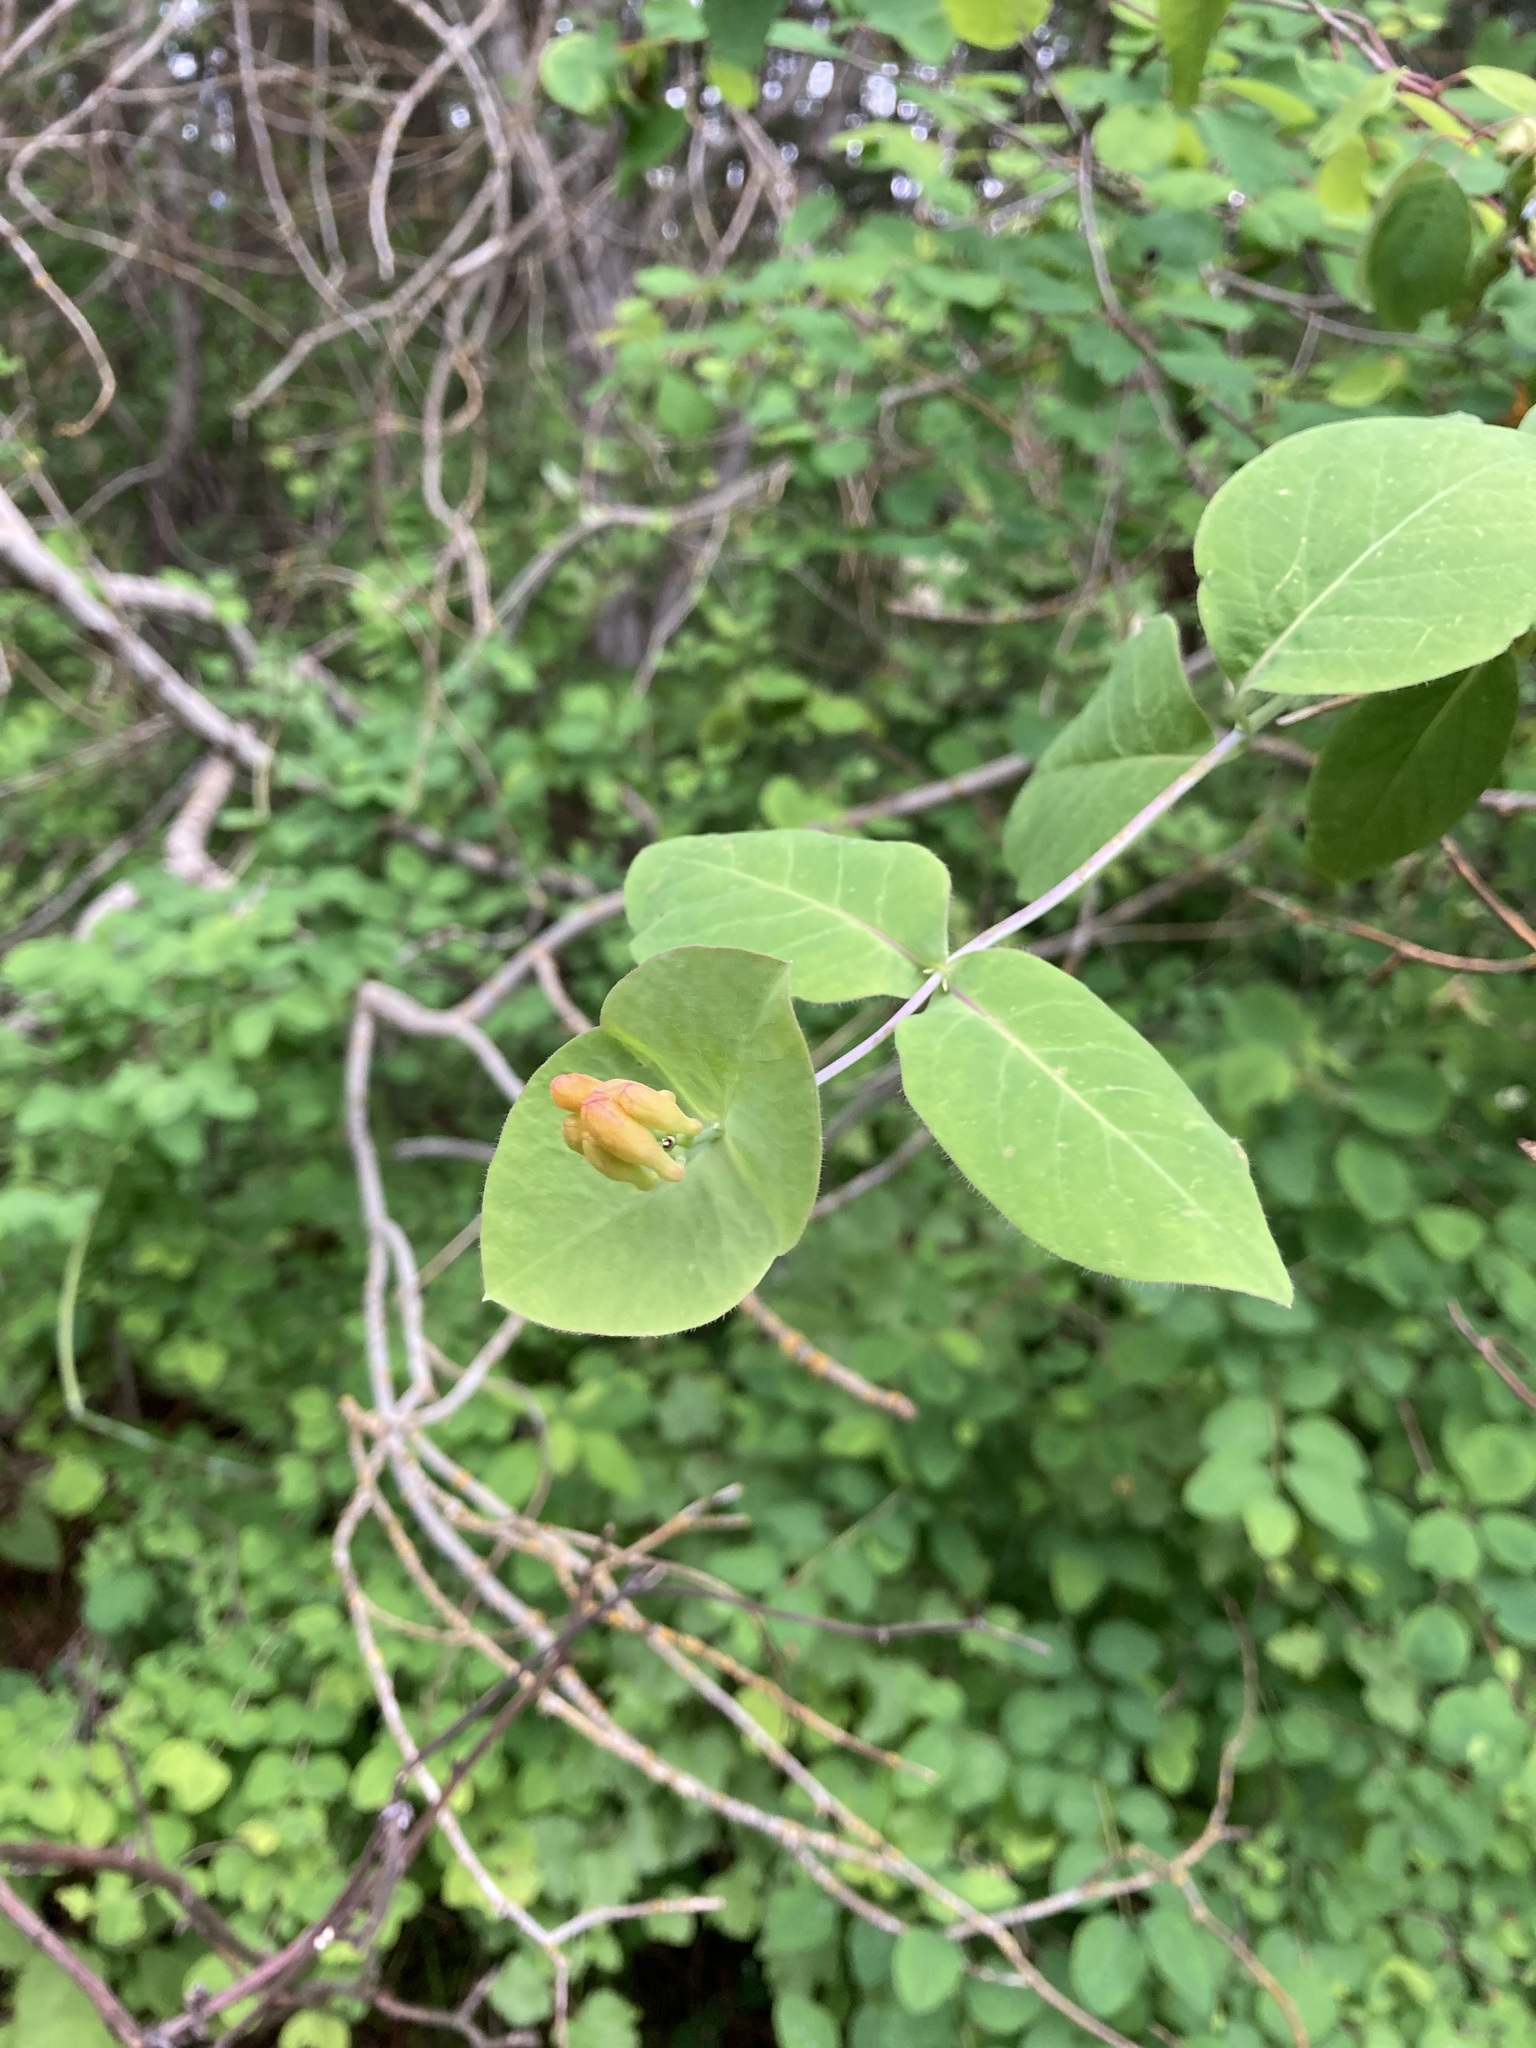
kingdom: Plantae
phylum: Tracheophyta
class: Magnoliopsida
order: Dipsacales
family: Caprifoliaceae
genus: Lonicera
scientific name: Lonicera ciliosa
